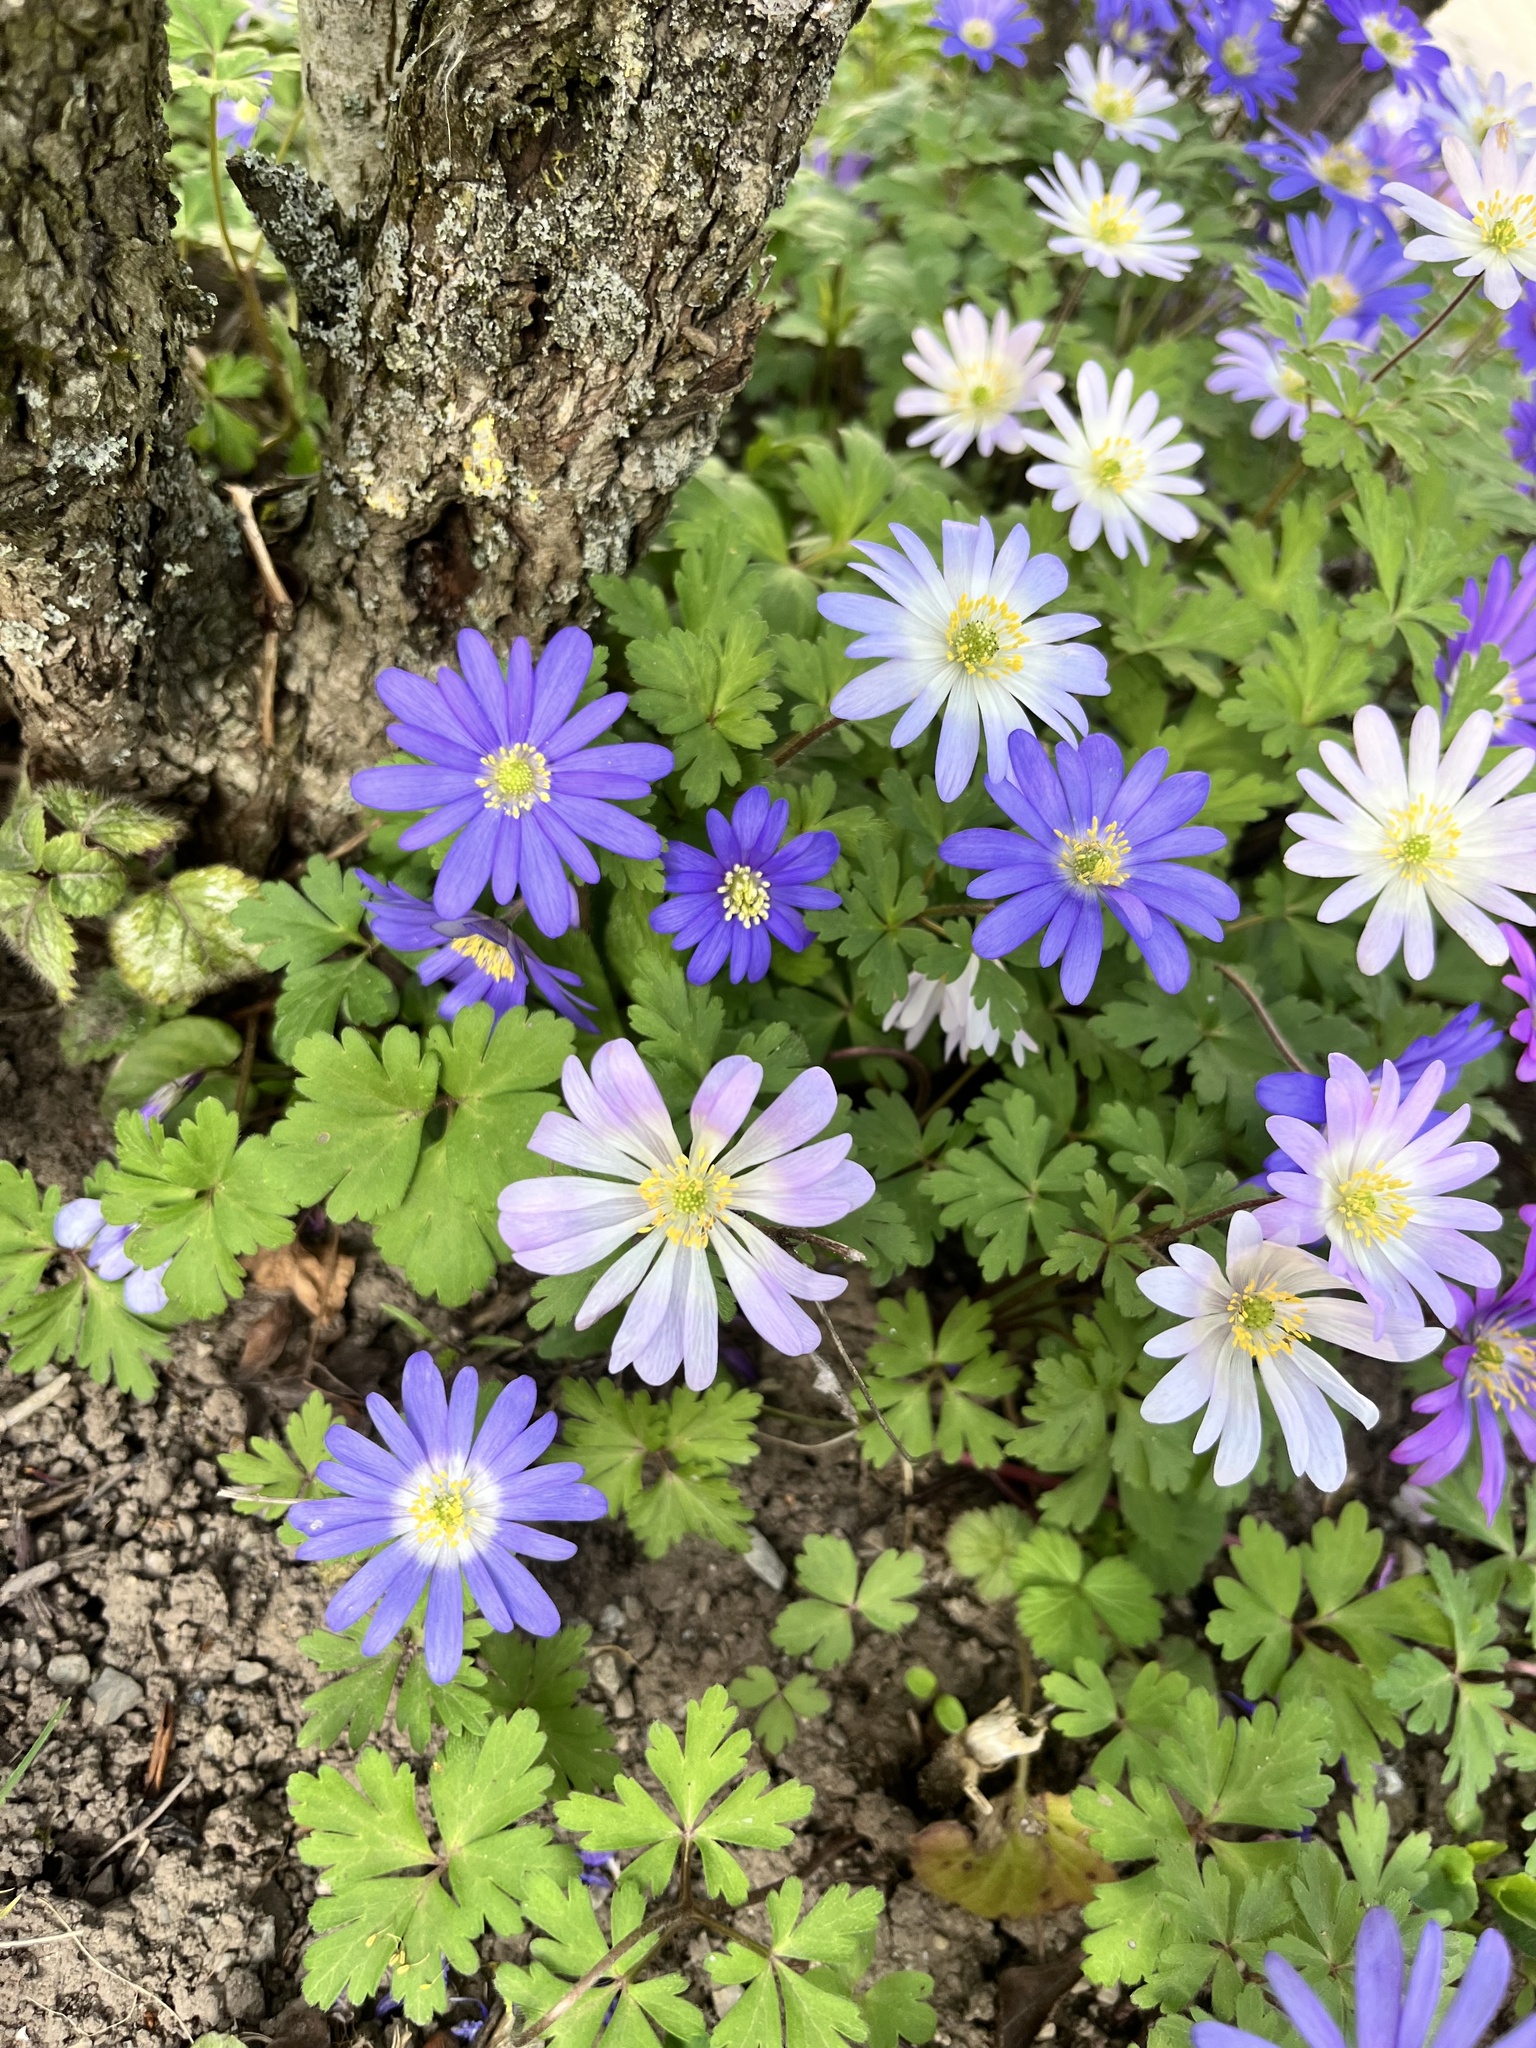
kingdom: Plantae
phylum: Tracheophyta
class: Magnoliopsida
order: Ranunculales
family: Ranunculaceae
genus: Anemone
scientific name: Anemone blanda
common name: Balkan anemone
